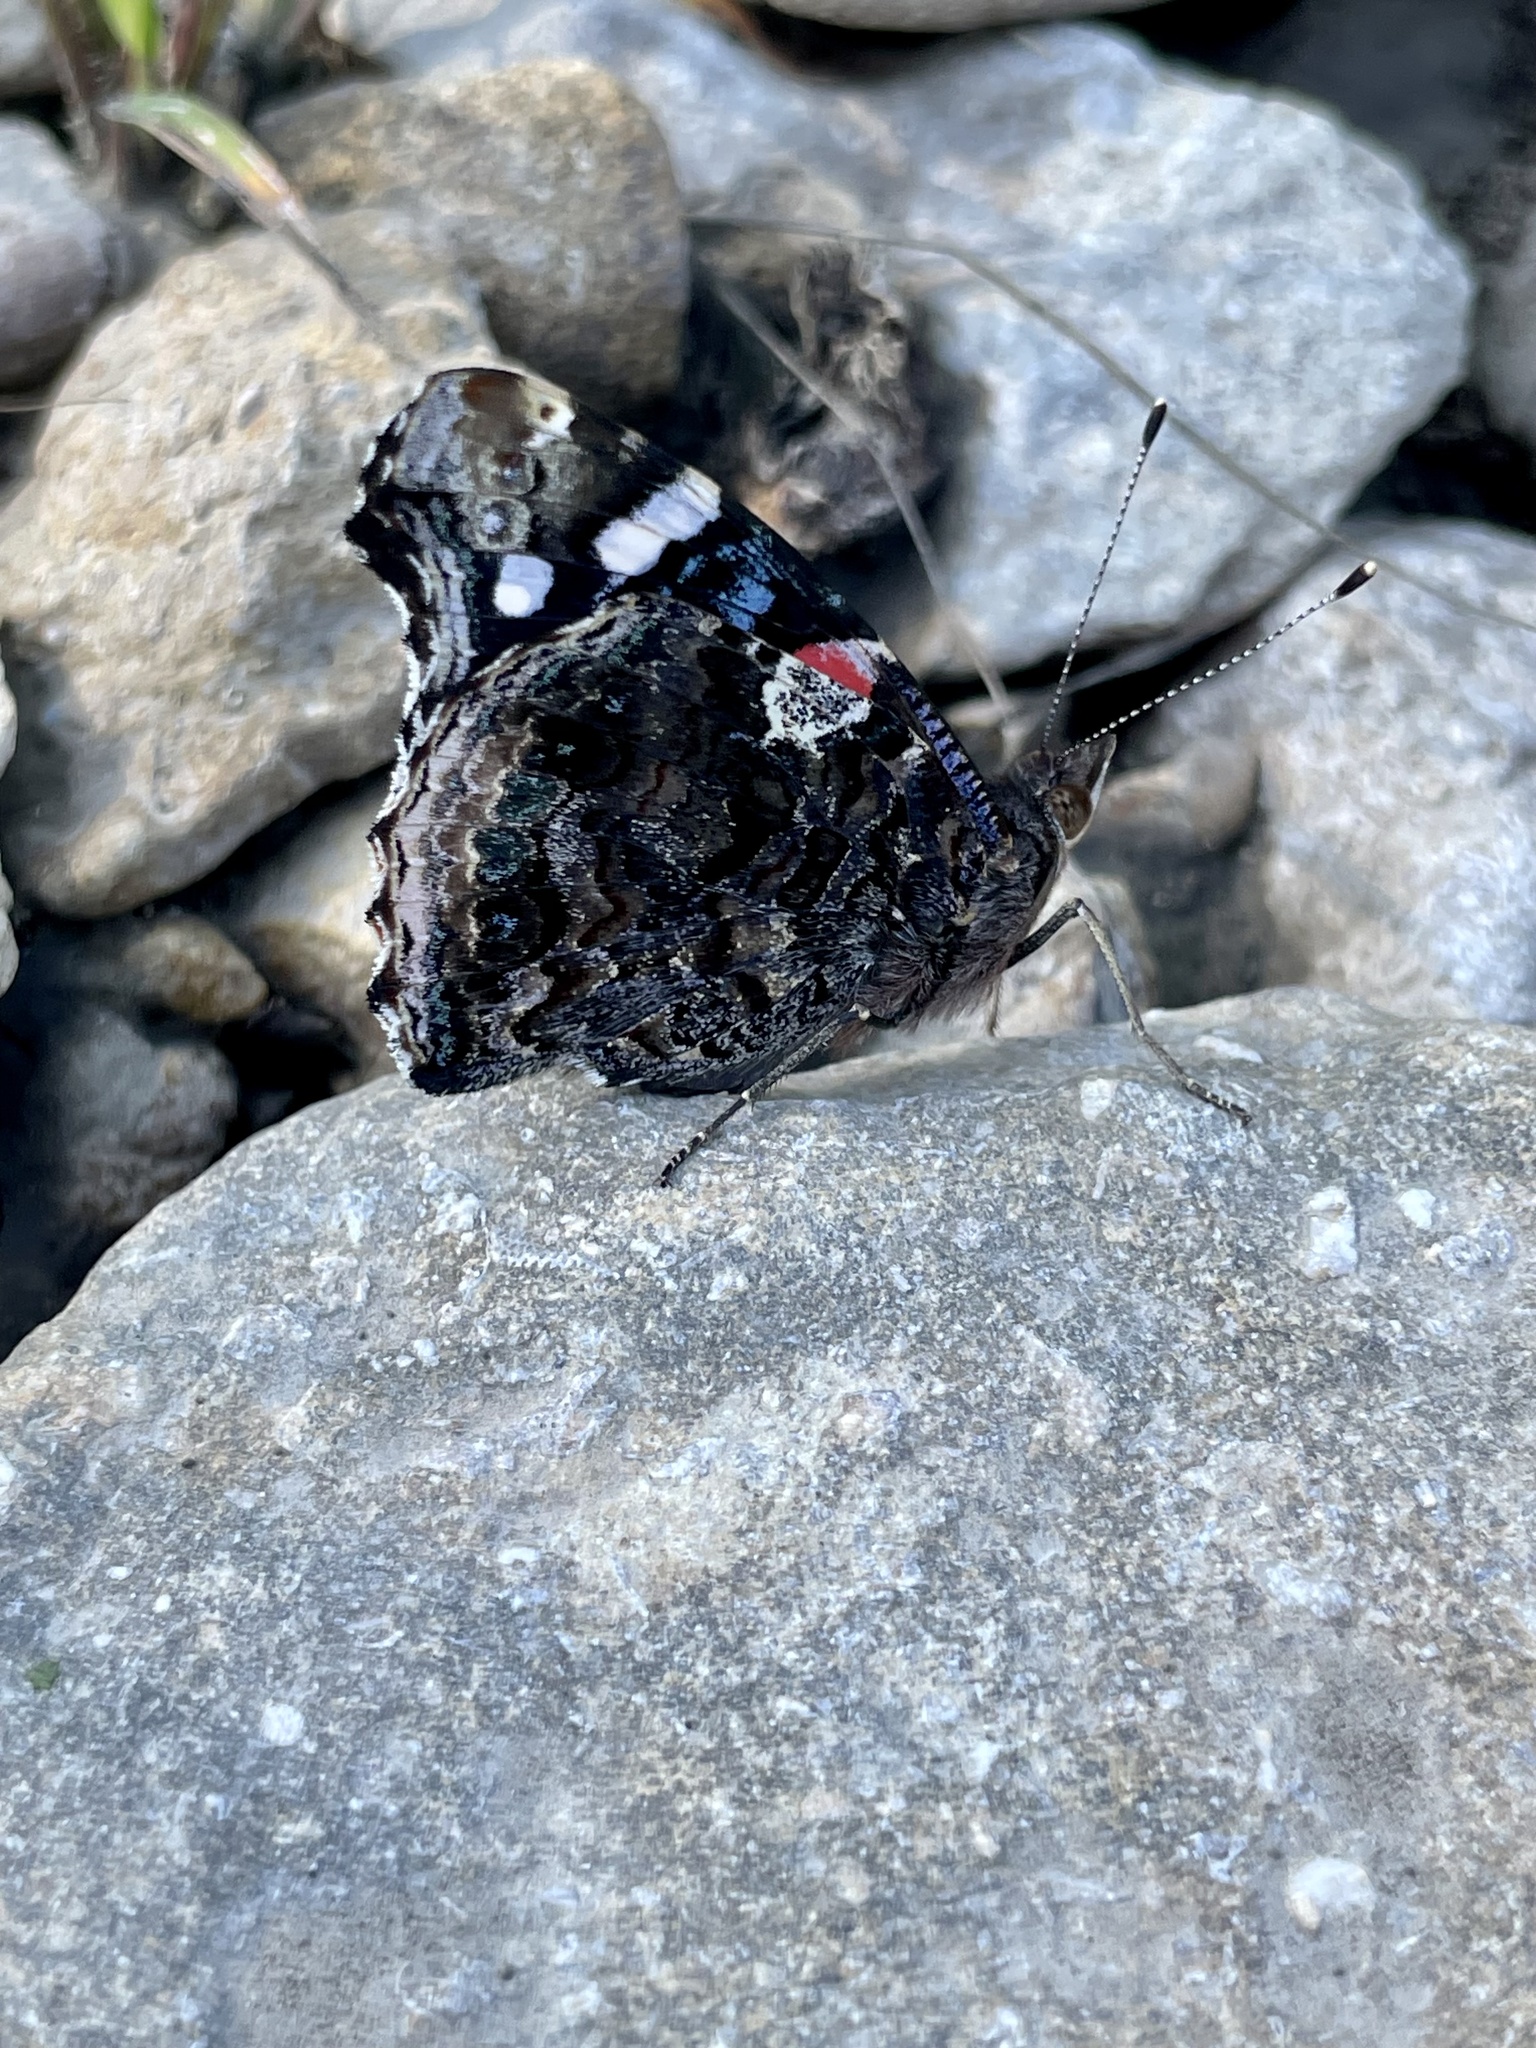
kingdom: Animalia
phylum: Arthropoda
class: Insecta
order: Lepidoptera
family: Nymphalidae
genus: Vanessa
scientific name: Vanessa atalanta
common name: Red admiral
